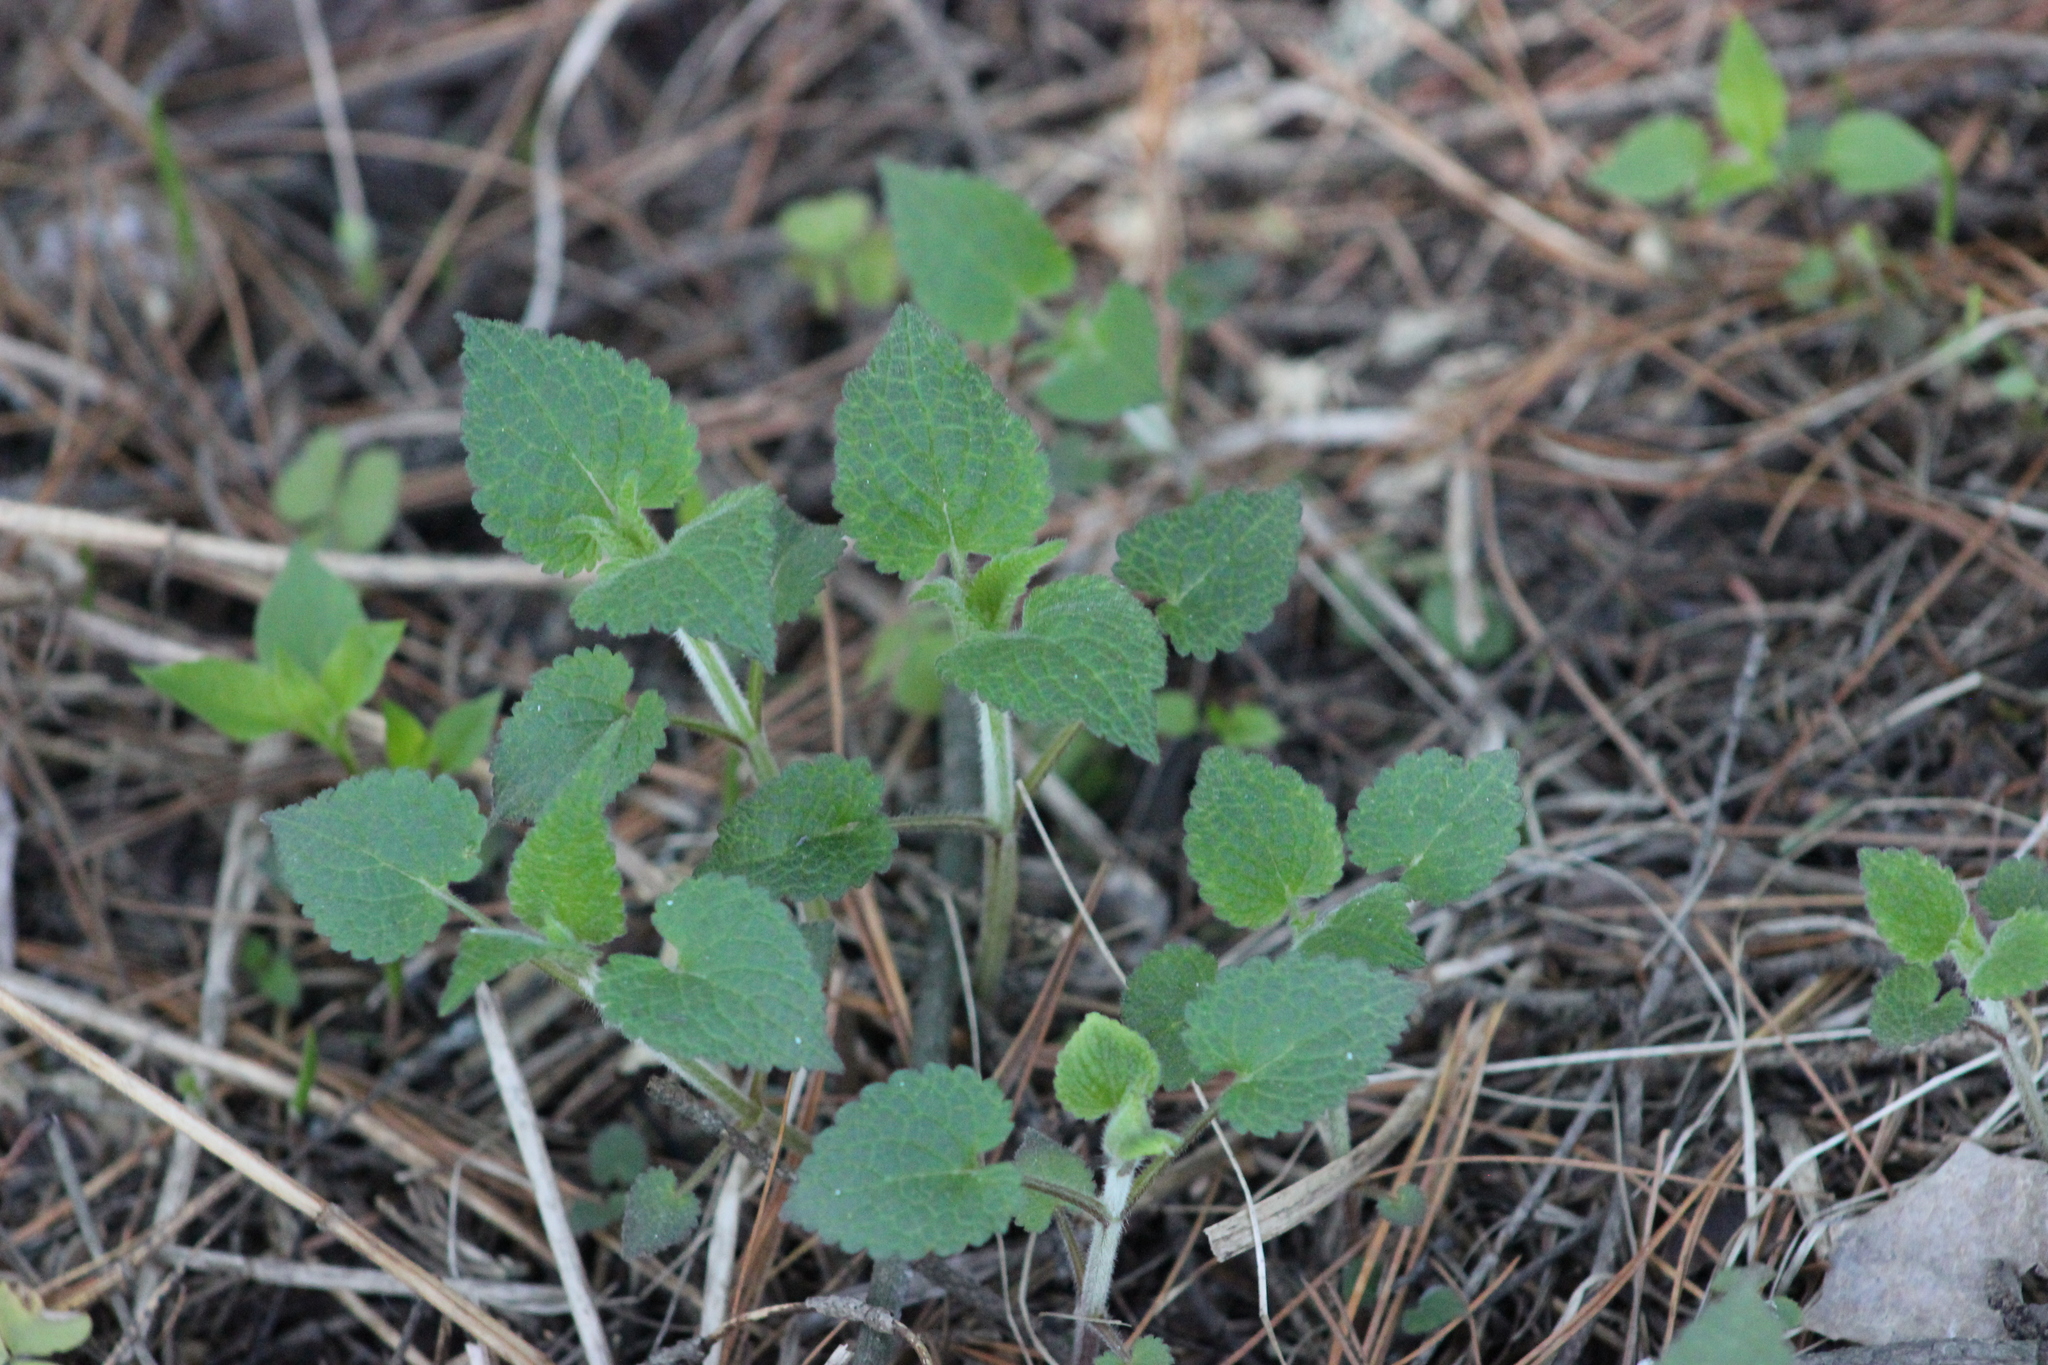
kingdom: Plantae
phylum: Tracheophyta
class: Magnoliopsida
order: Lamiales
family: Lamiaceae
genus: Lamium
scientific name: Lamium album
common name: White dead-nettle
